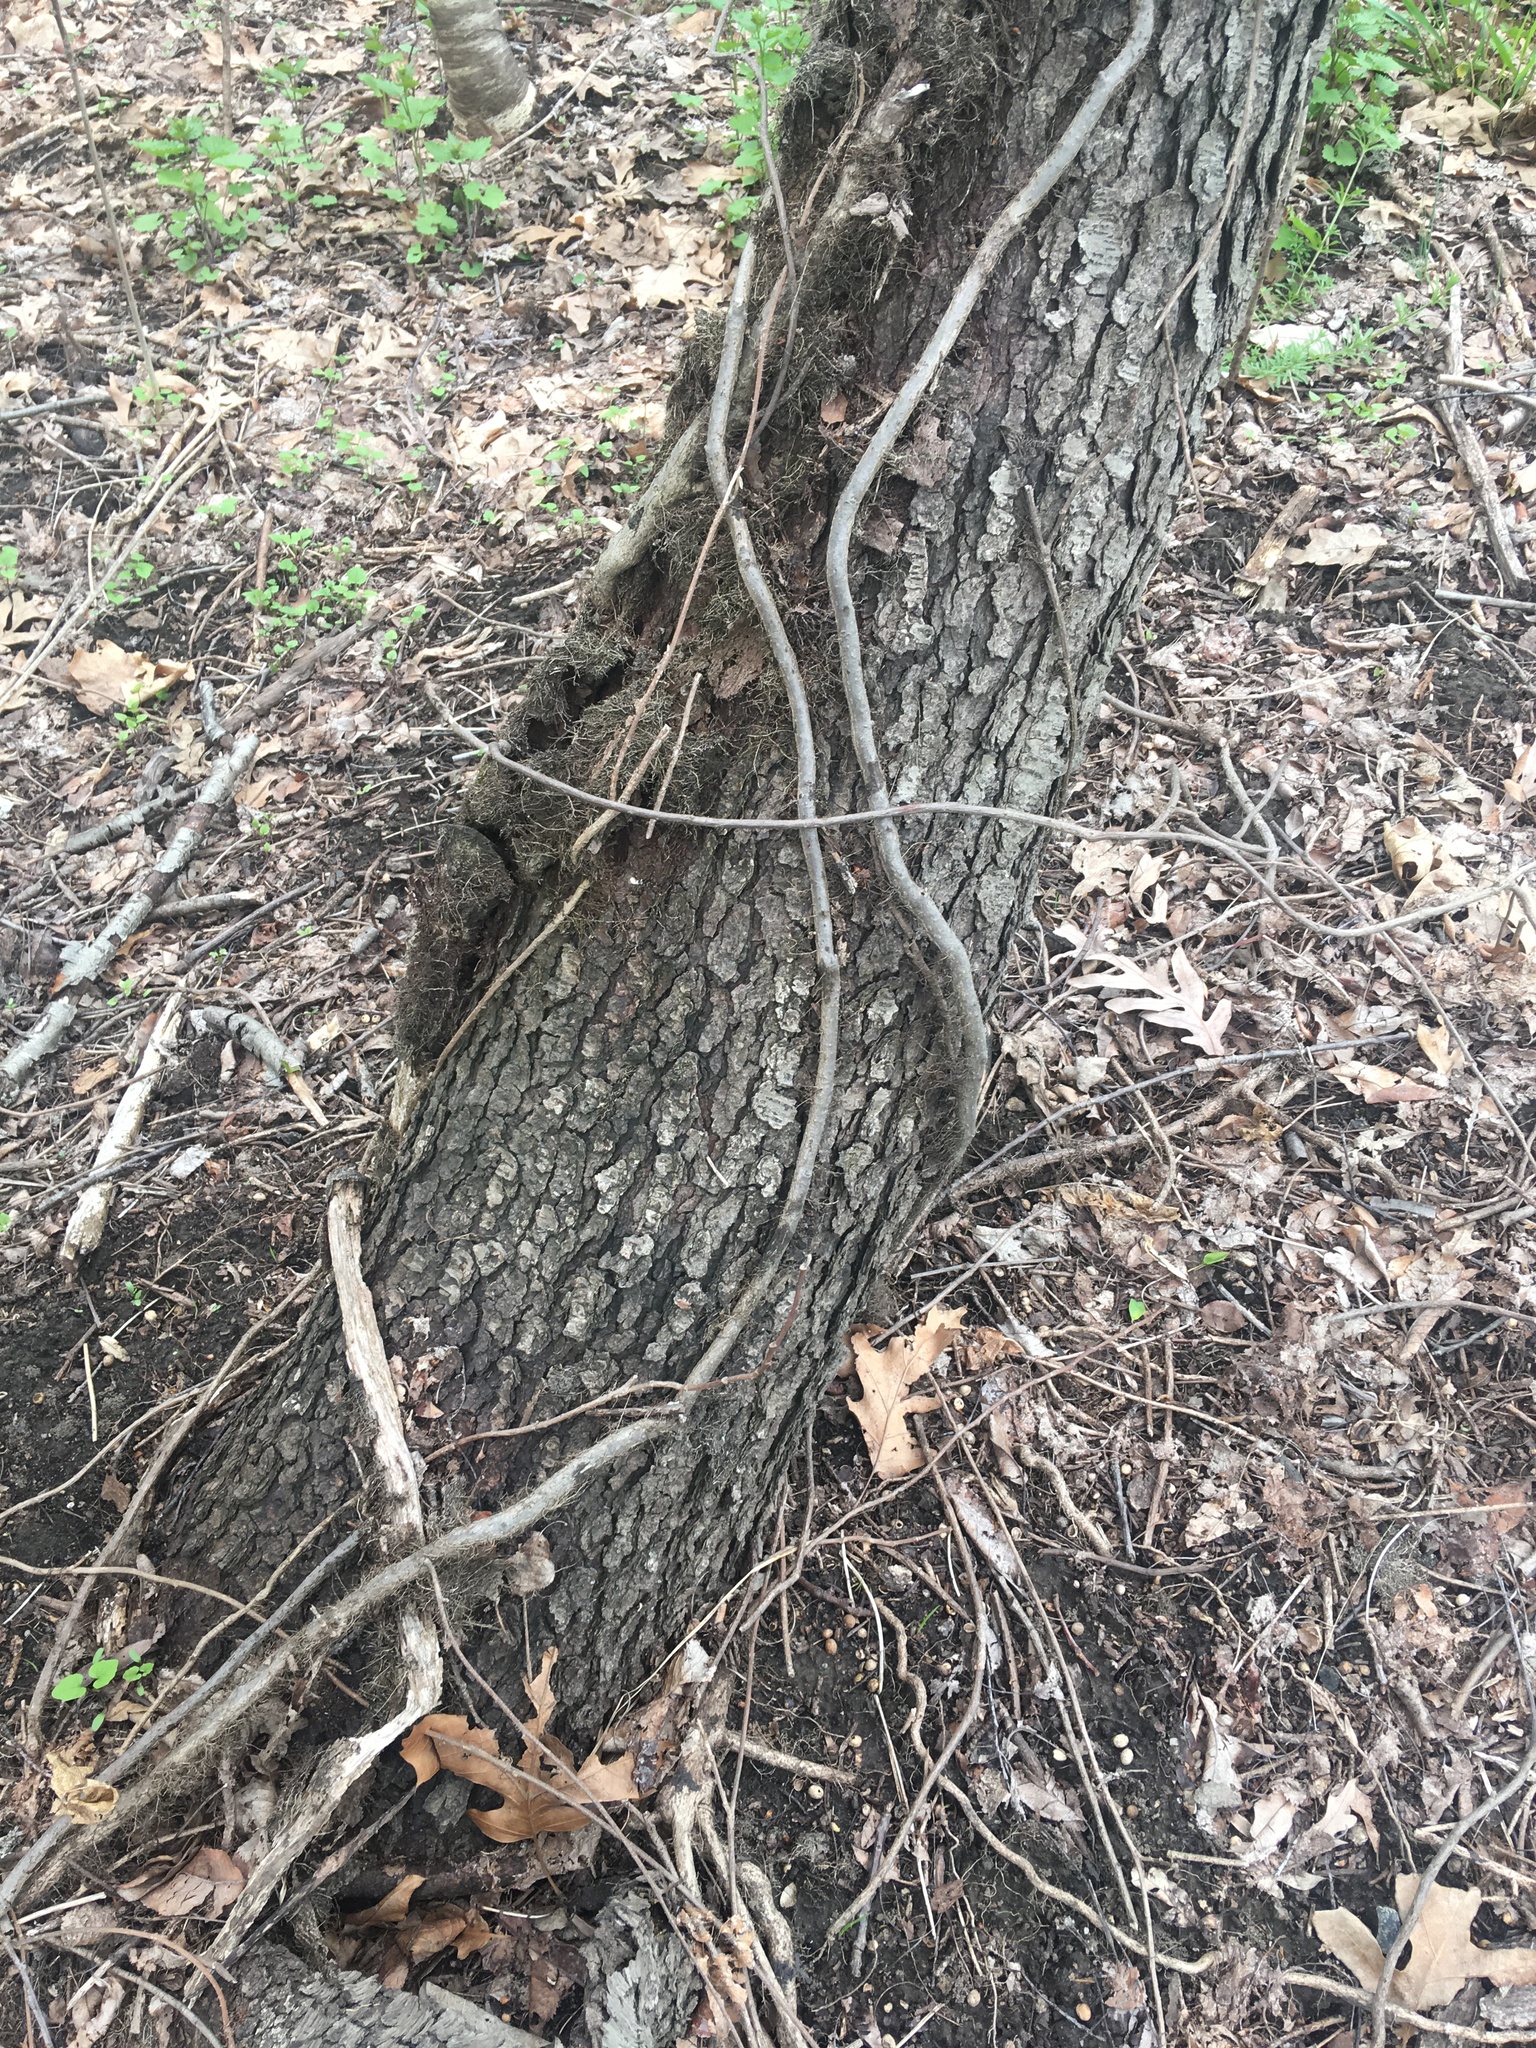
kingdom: Plantae
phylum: Tracheophyta
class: Magnoliopsida
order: Rosales
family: Rosaceae
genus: Prunus
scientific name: Prunus serotina
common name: Black cherry
